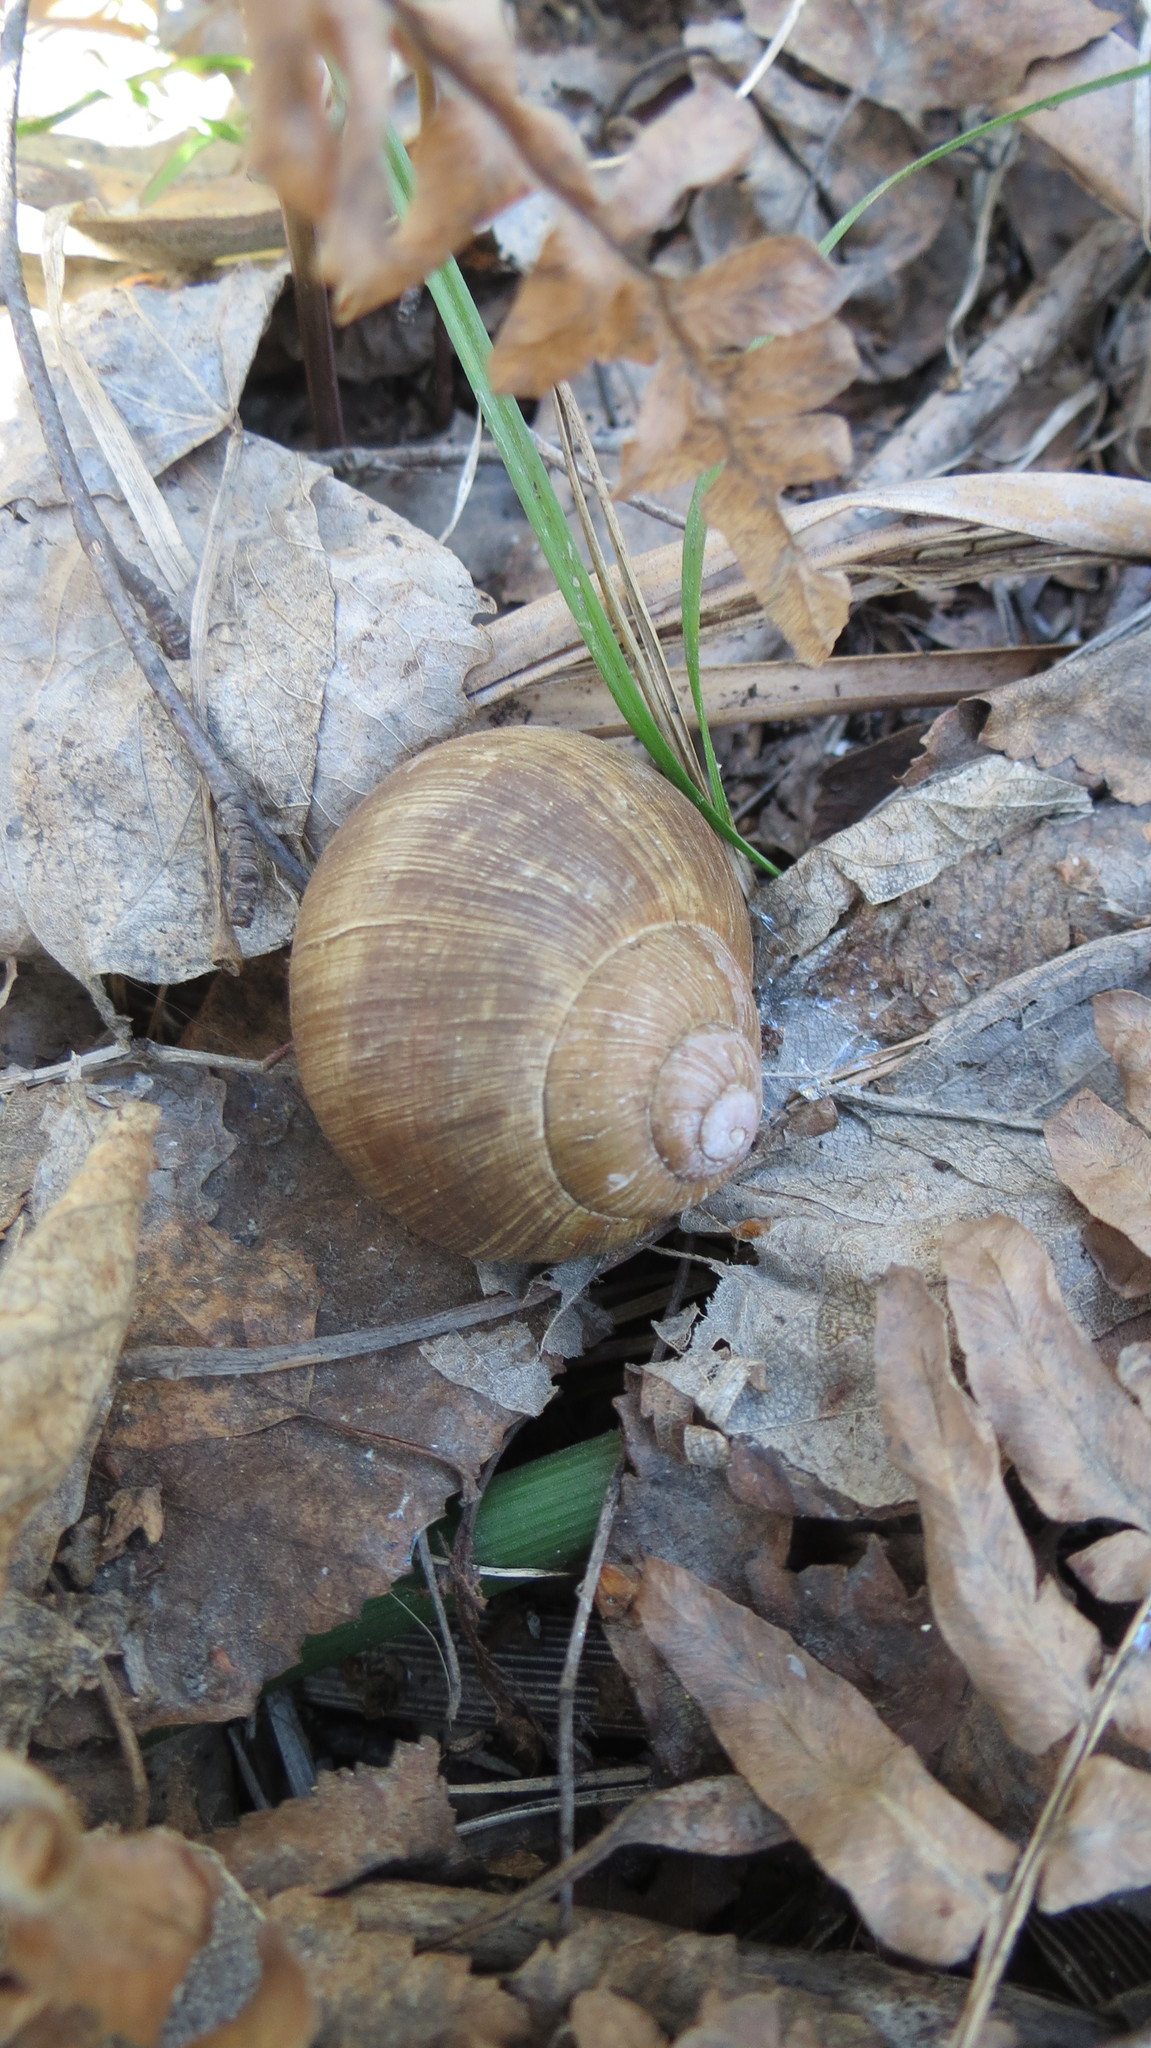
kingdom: Animalia
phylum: Mollusca
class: Gastropoda
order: Stylommatophora
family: Helicidae
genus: Helix
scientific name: Helix pomatia
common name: Roman snail
